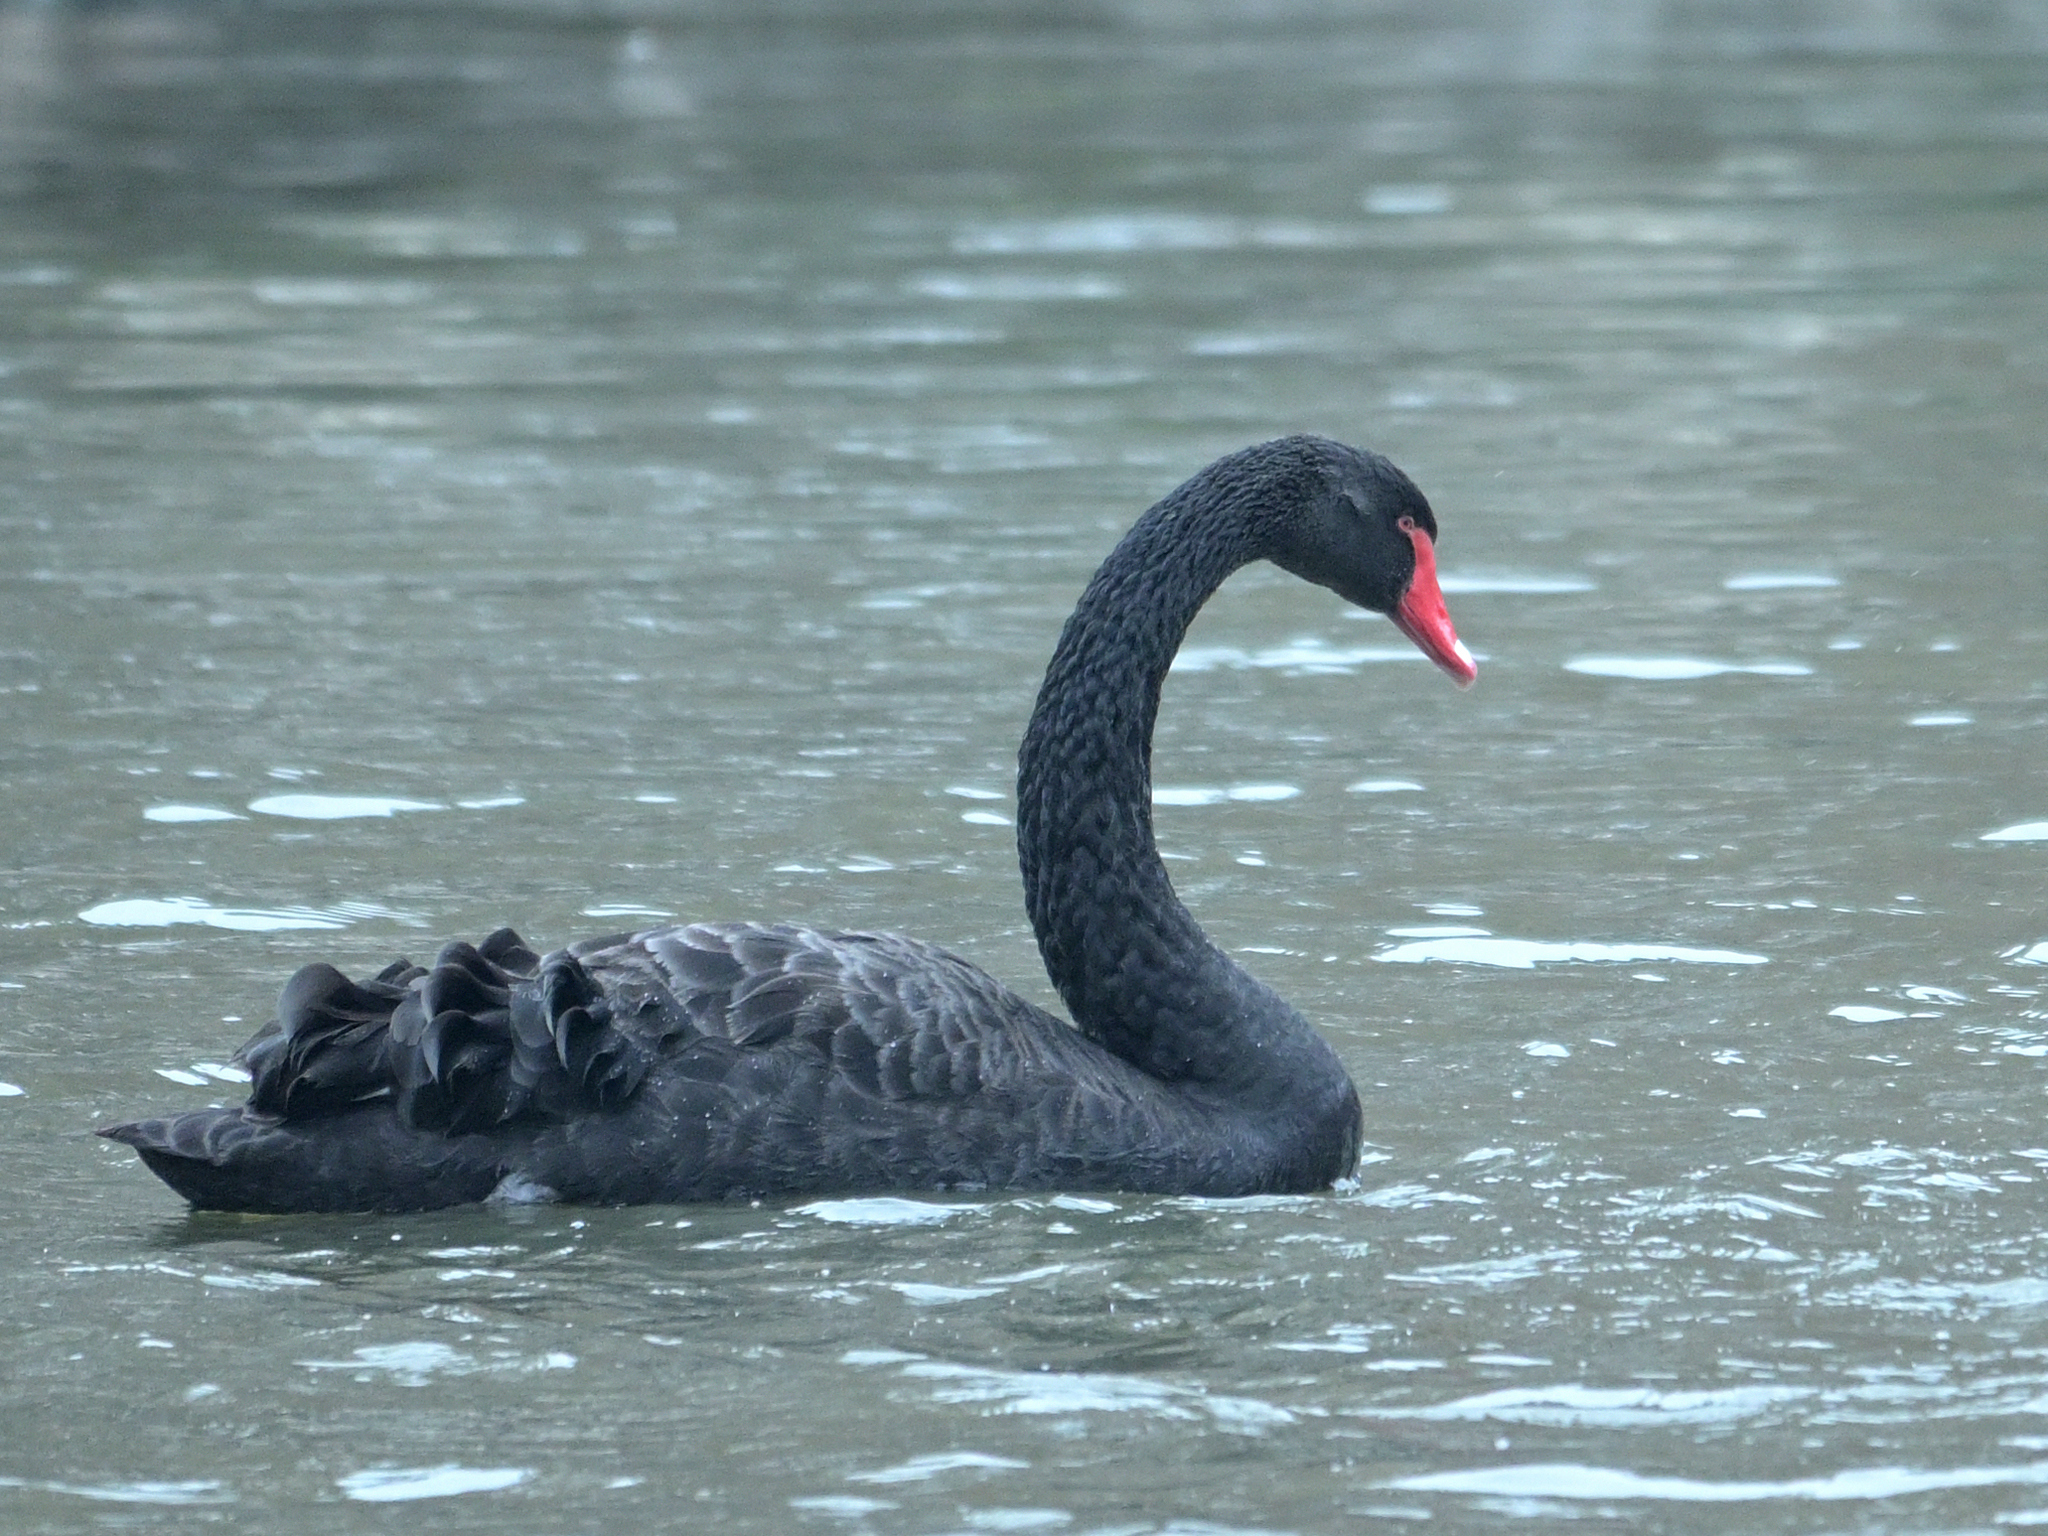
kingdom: Animalia
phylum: Chordata
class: Aves
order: Anseriformes
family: Anatidae
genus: Cygnus
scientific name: Cygnus atratus
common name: Black swan
